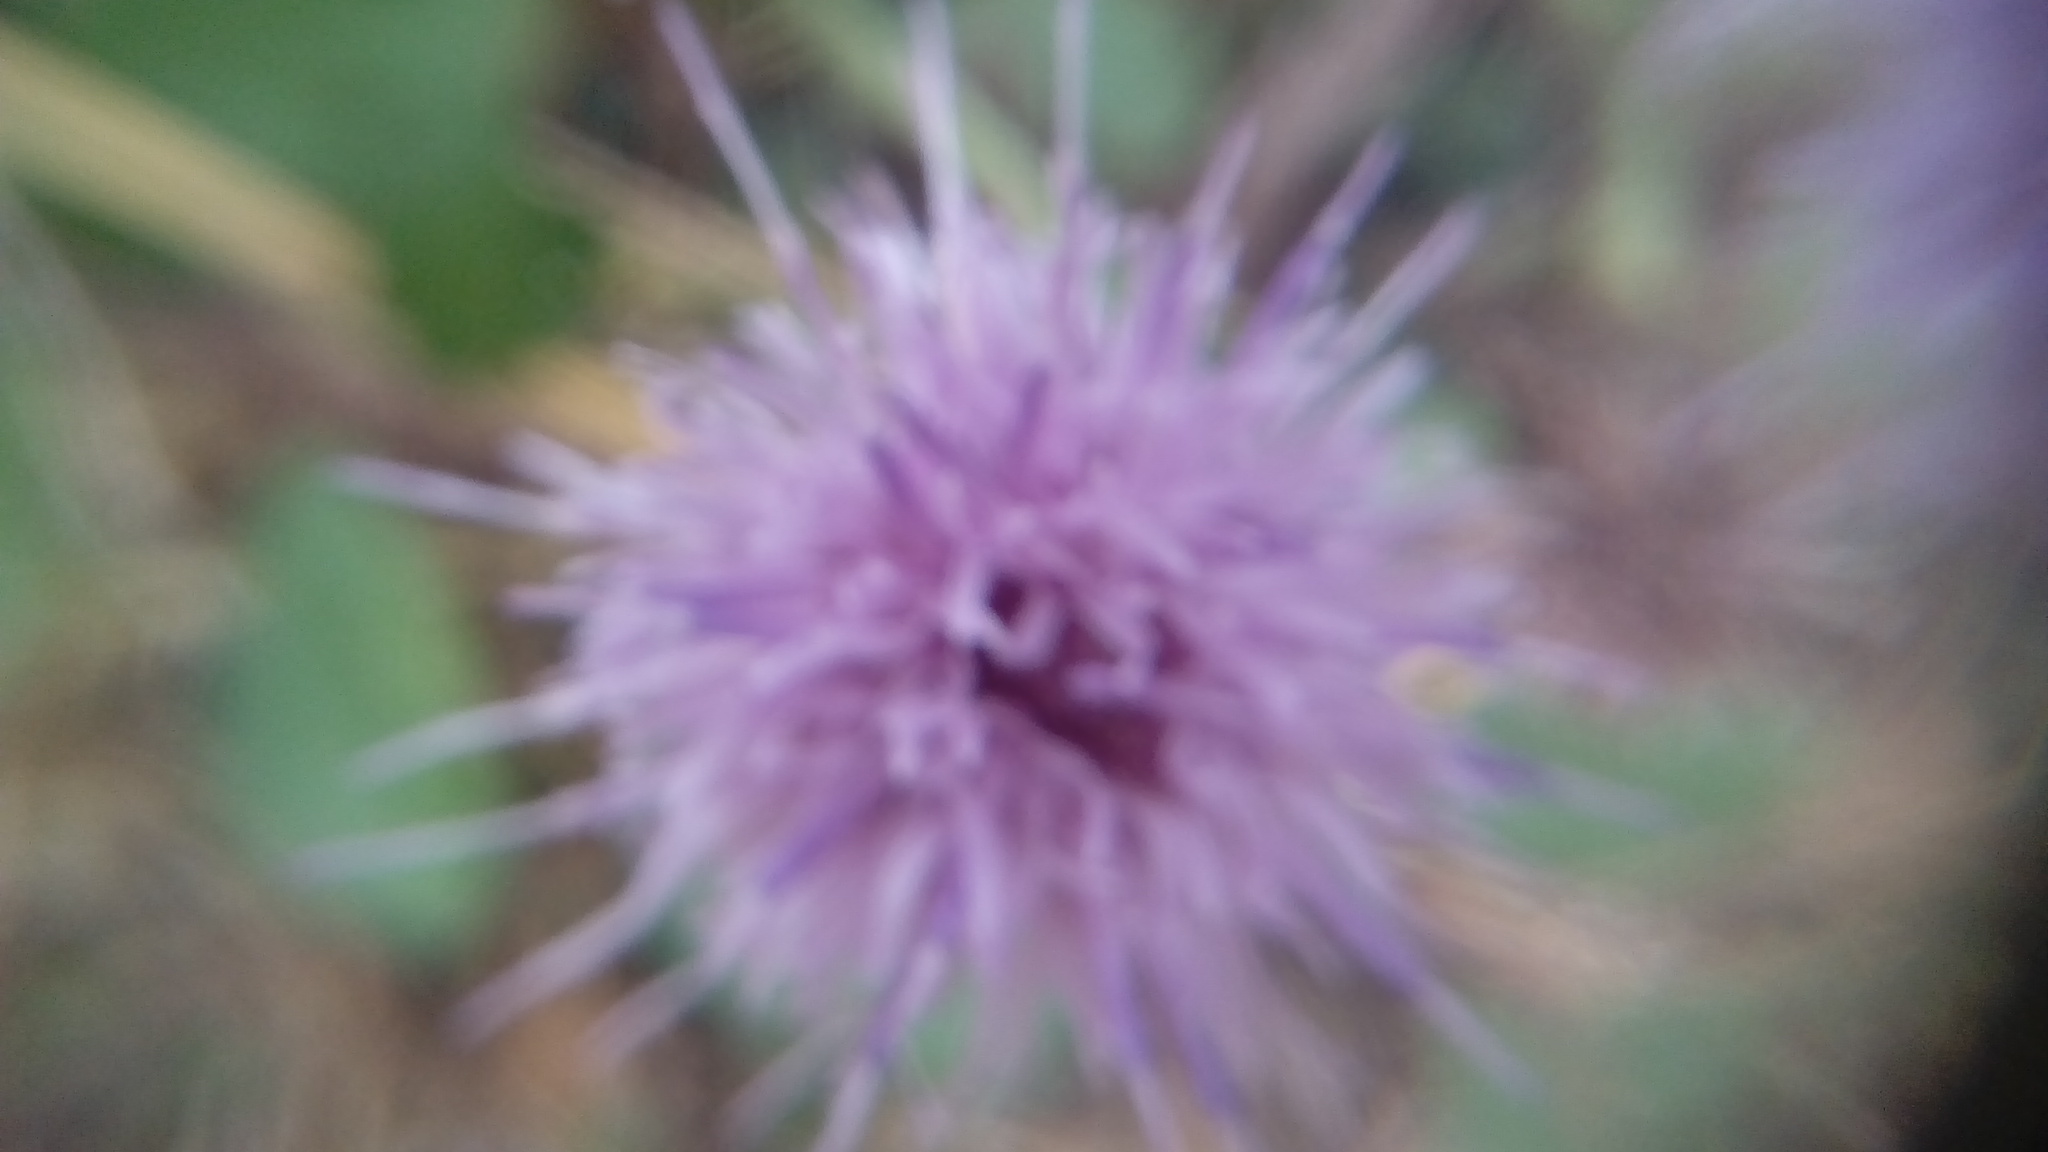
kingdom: Plantae
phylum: Tracheophyta
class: Magnoliopsida
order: Asterales
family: Asteraceae
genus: Cirsium
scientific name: Cirsium arvense
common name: Creeping thistle
